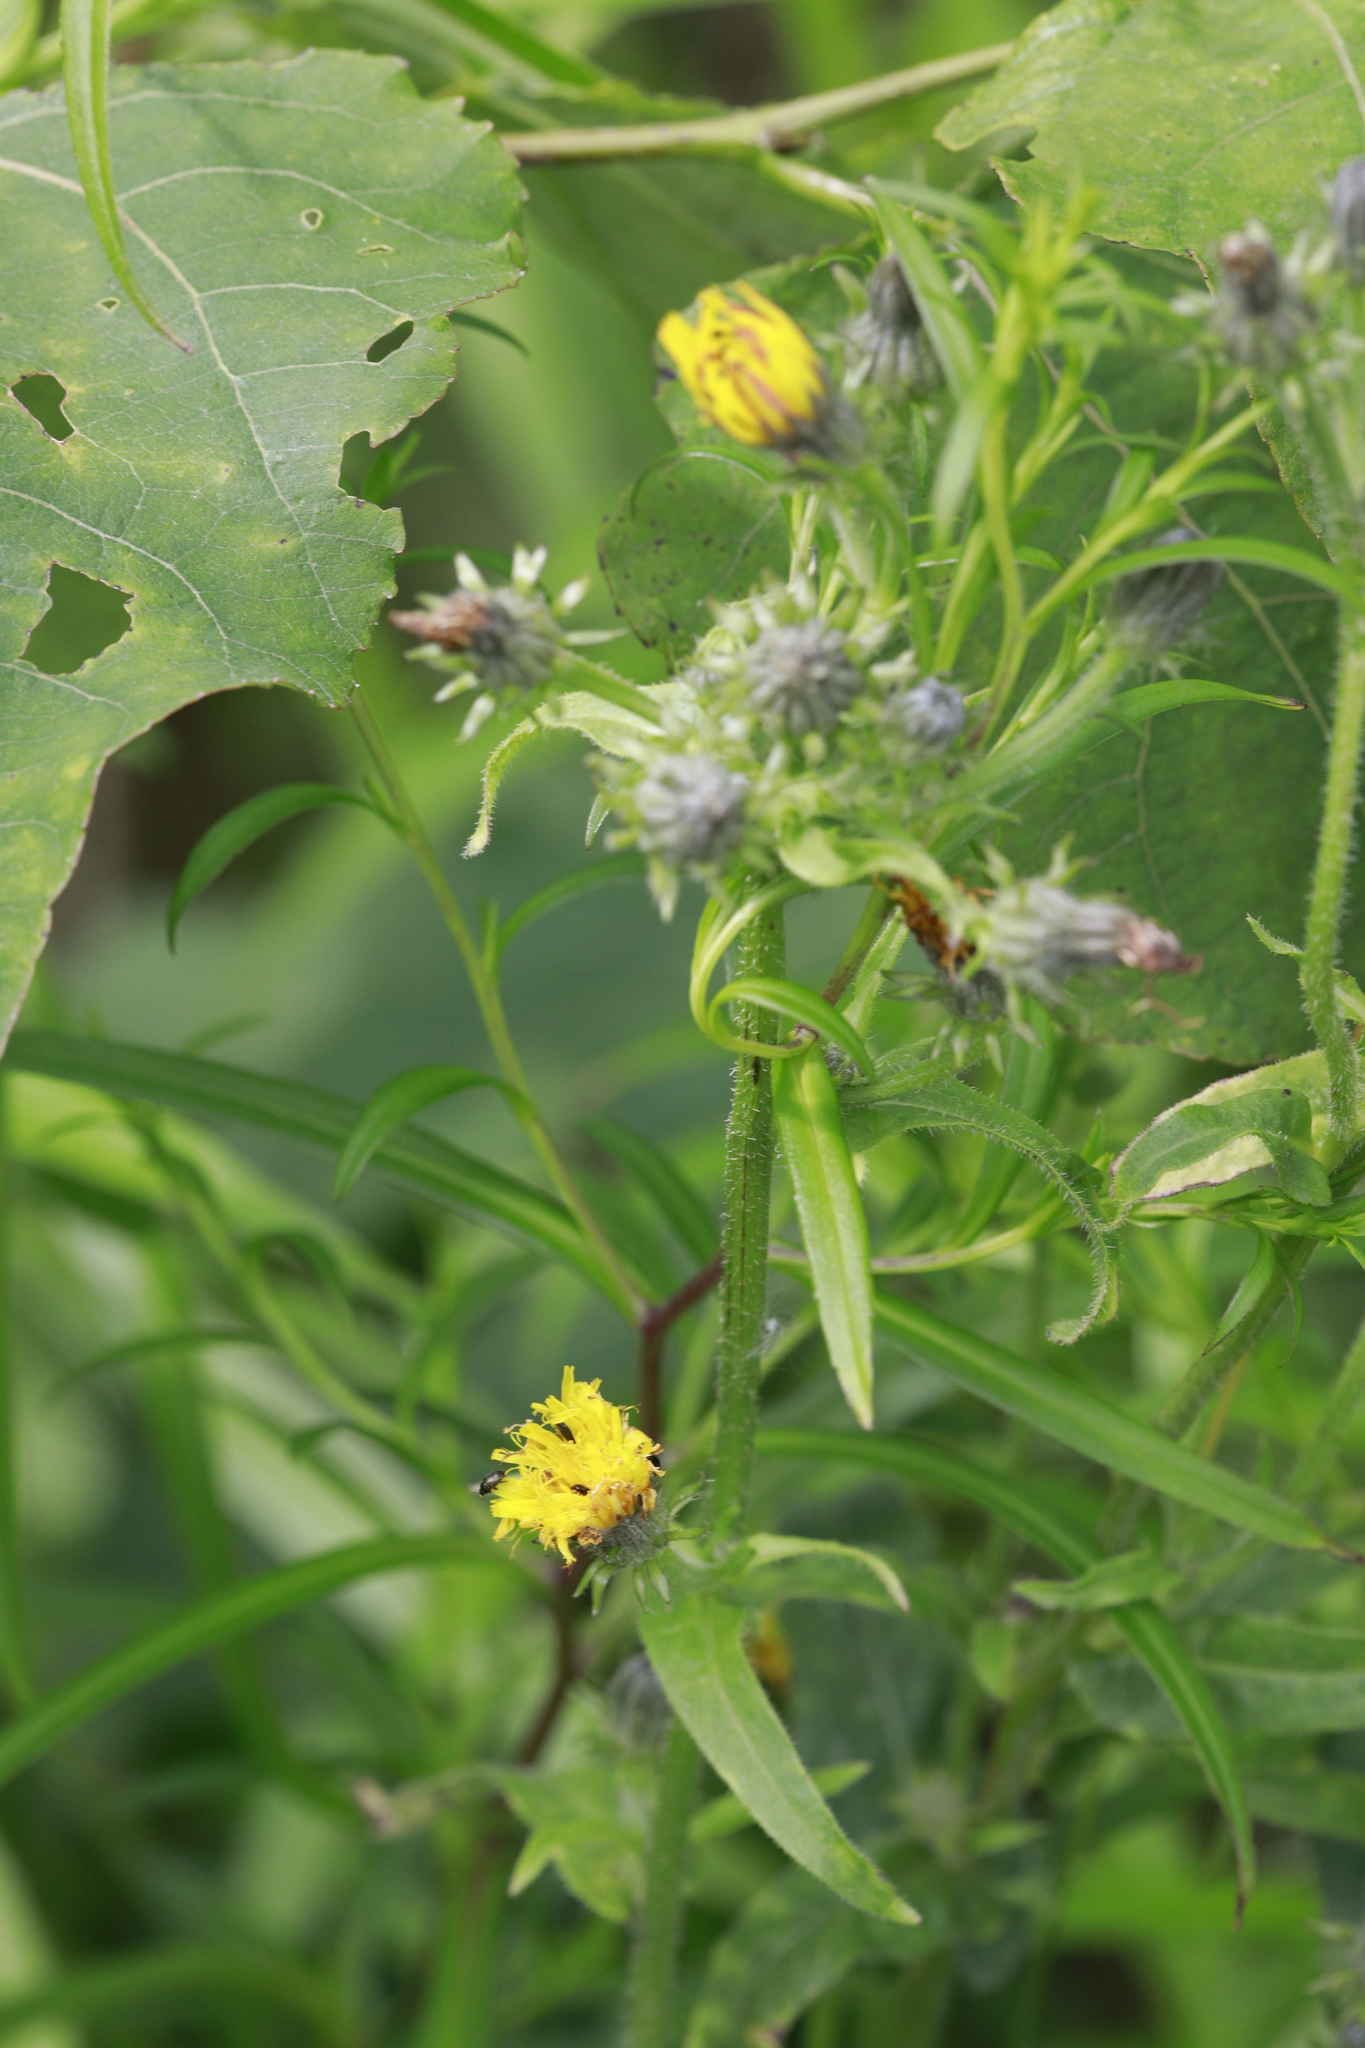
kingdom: Plantae
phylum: Tracheophyta
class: Magnoliopsida
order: Asterales
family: Asteraceae
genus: Picris
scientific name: Picris hieracioides
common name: Hawkweed oxtongue
